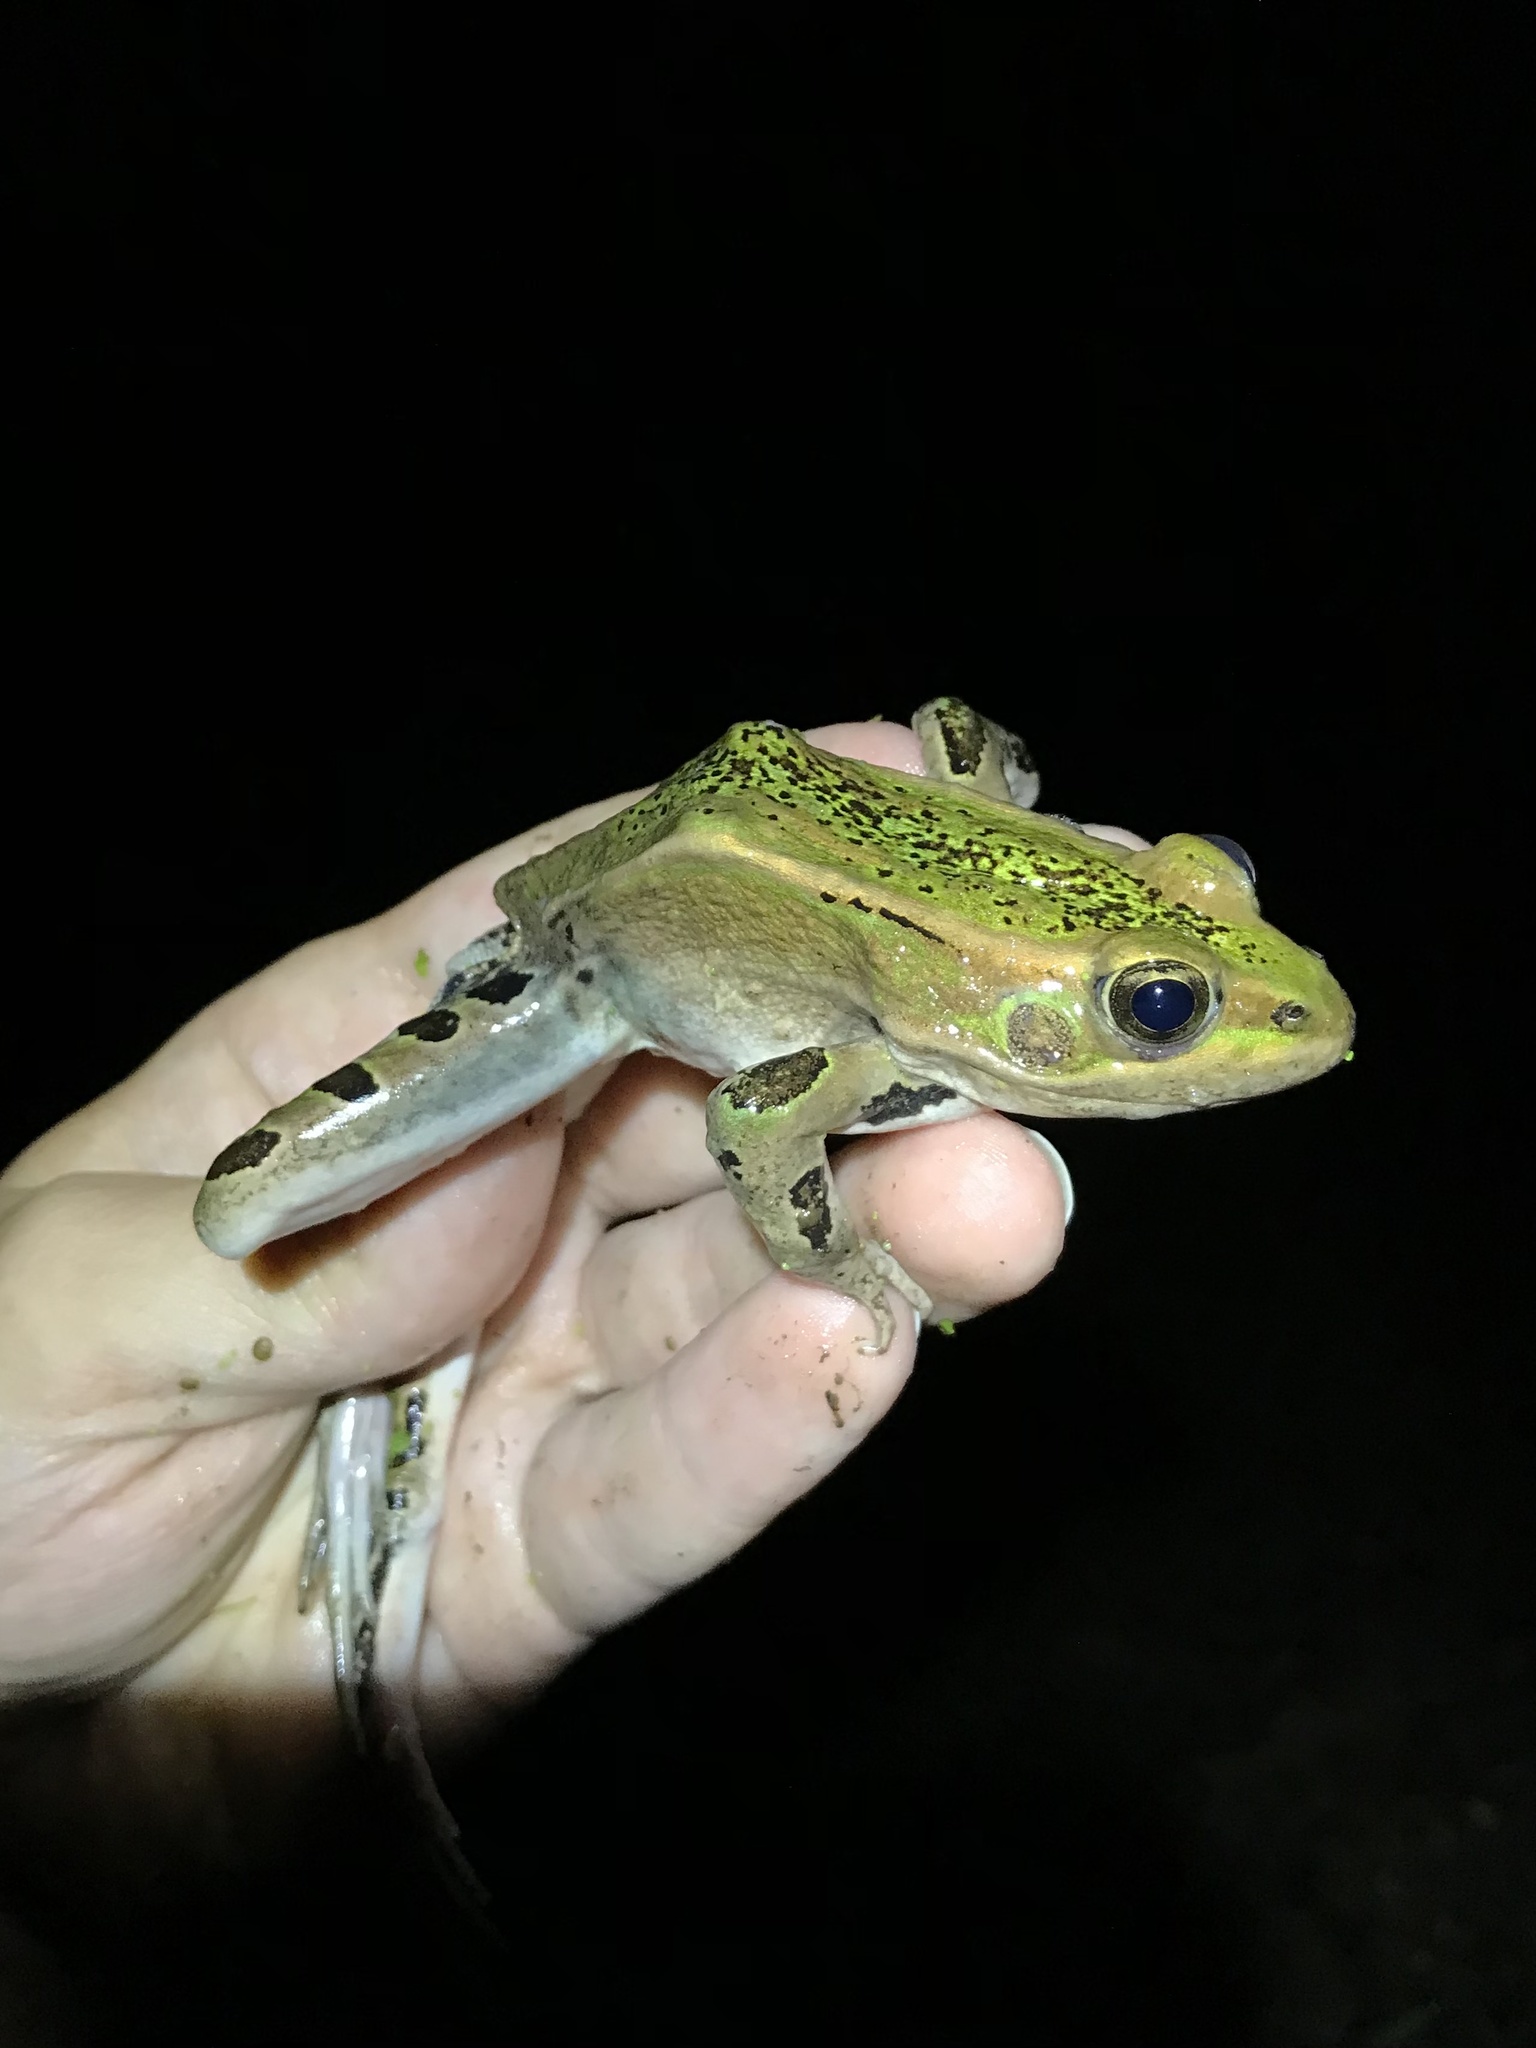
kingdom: Animalia
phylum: Chordata
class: Amphibia
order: Anura
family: Ranidae
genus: Lithobates
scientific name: Lithobates pipiens
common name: Northern leopard frog
